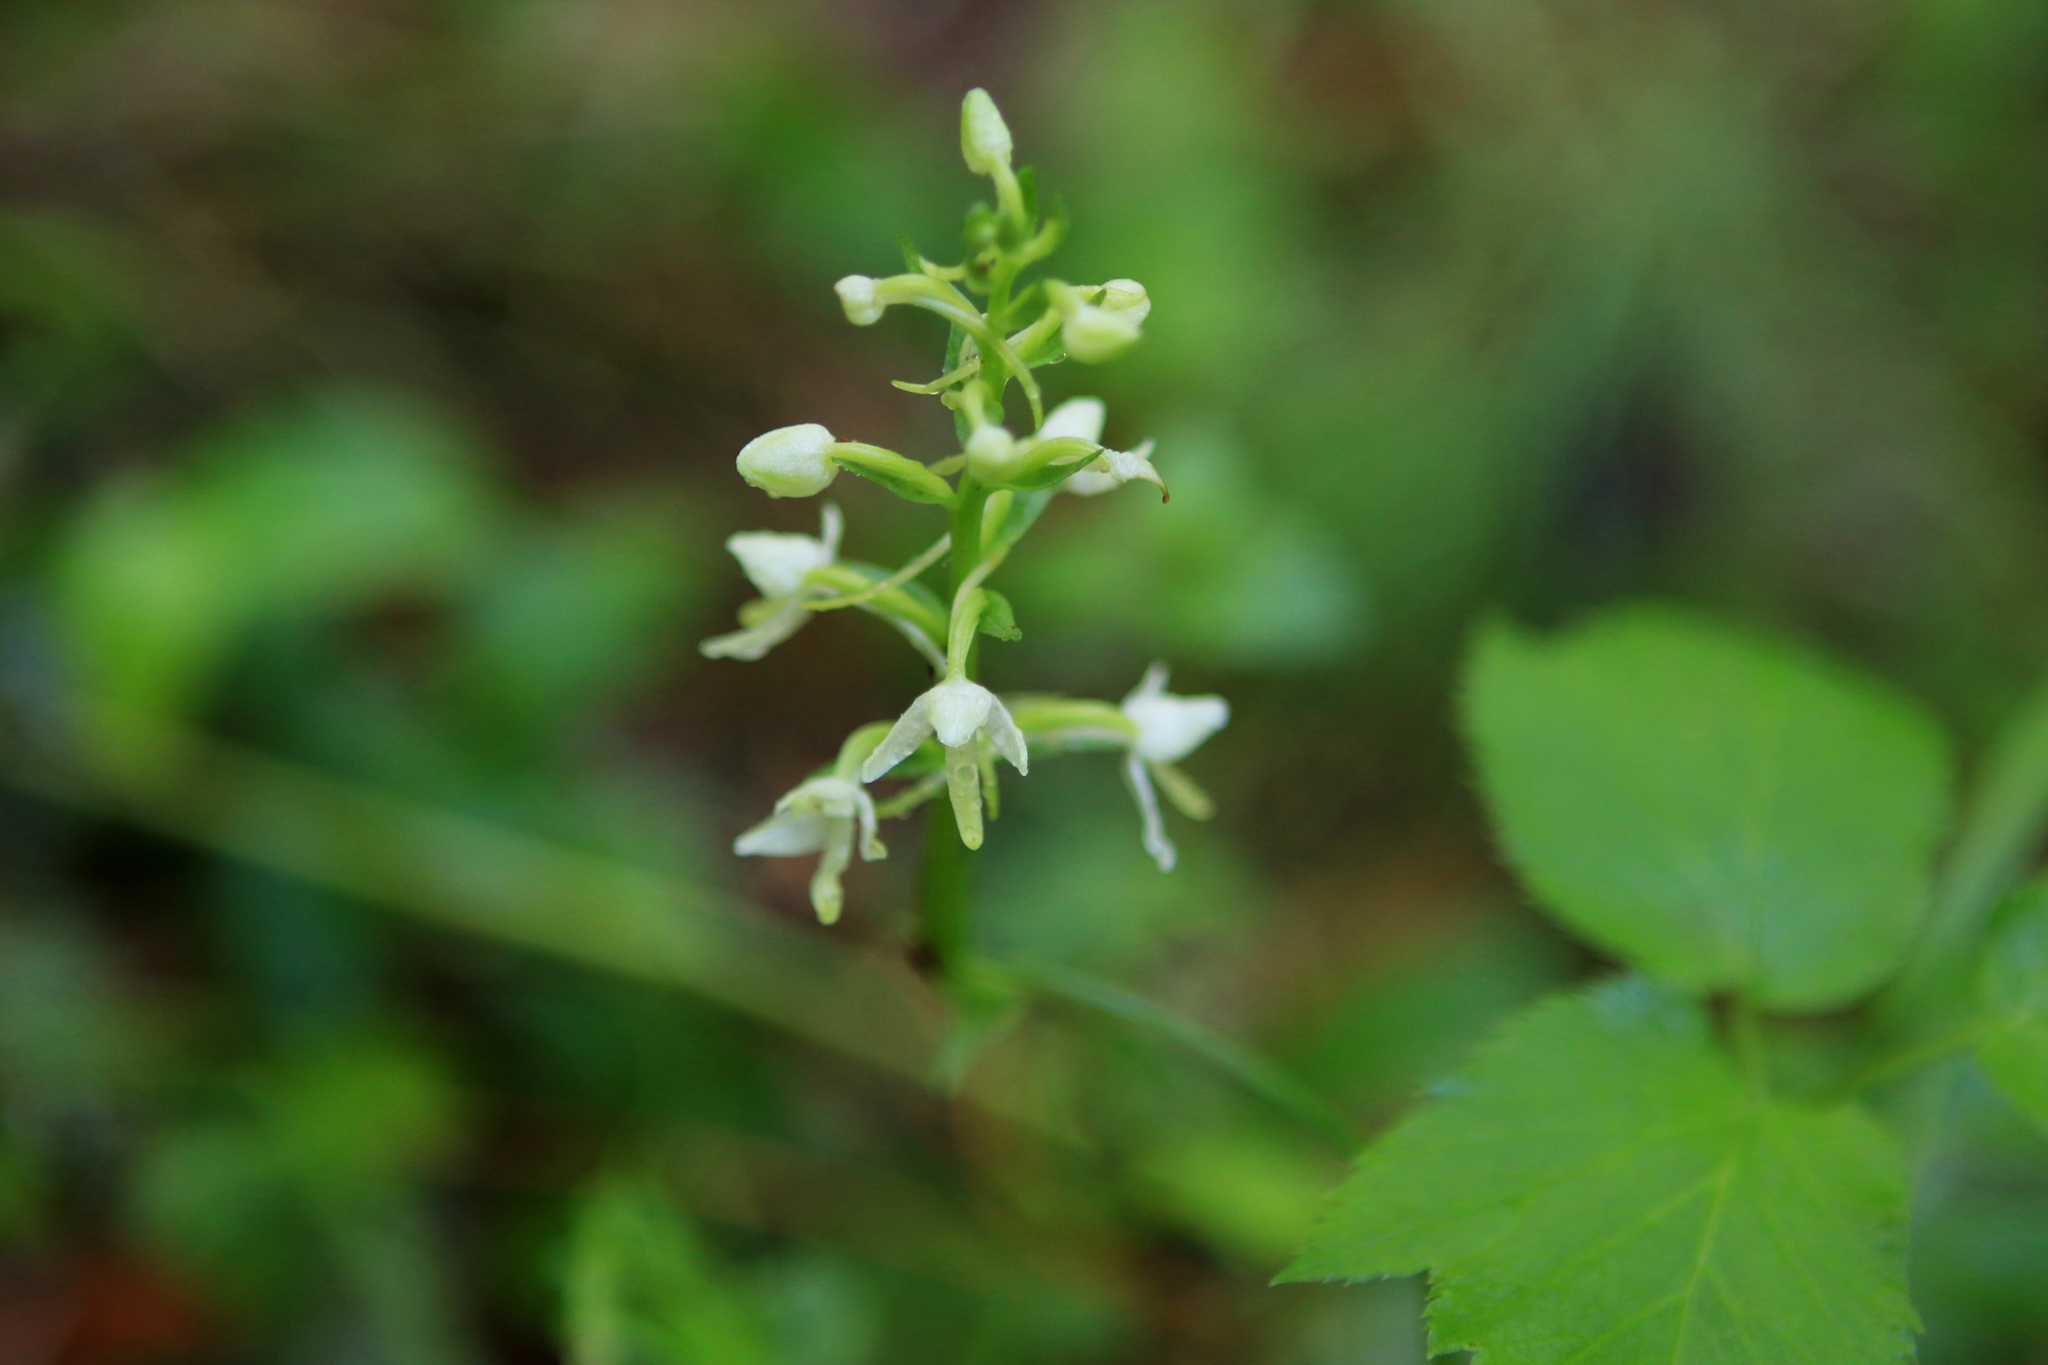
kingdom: Plantae
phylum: Tracheophyta
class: Liliopsida
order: Asparagales
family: Orchidaceae
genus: Platanthera
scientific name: Platanthera bifolia
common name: Lesser butterfly-orchid
